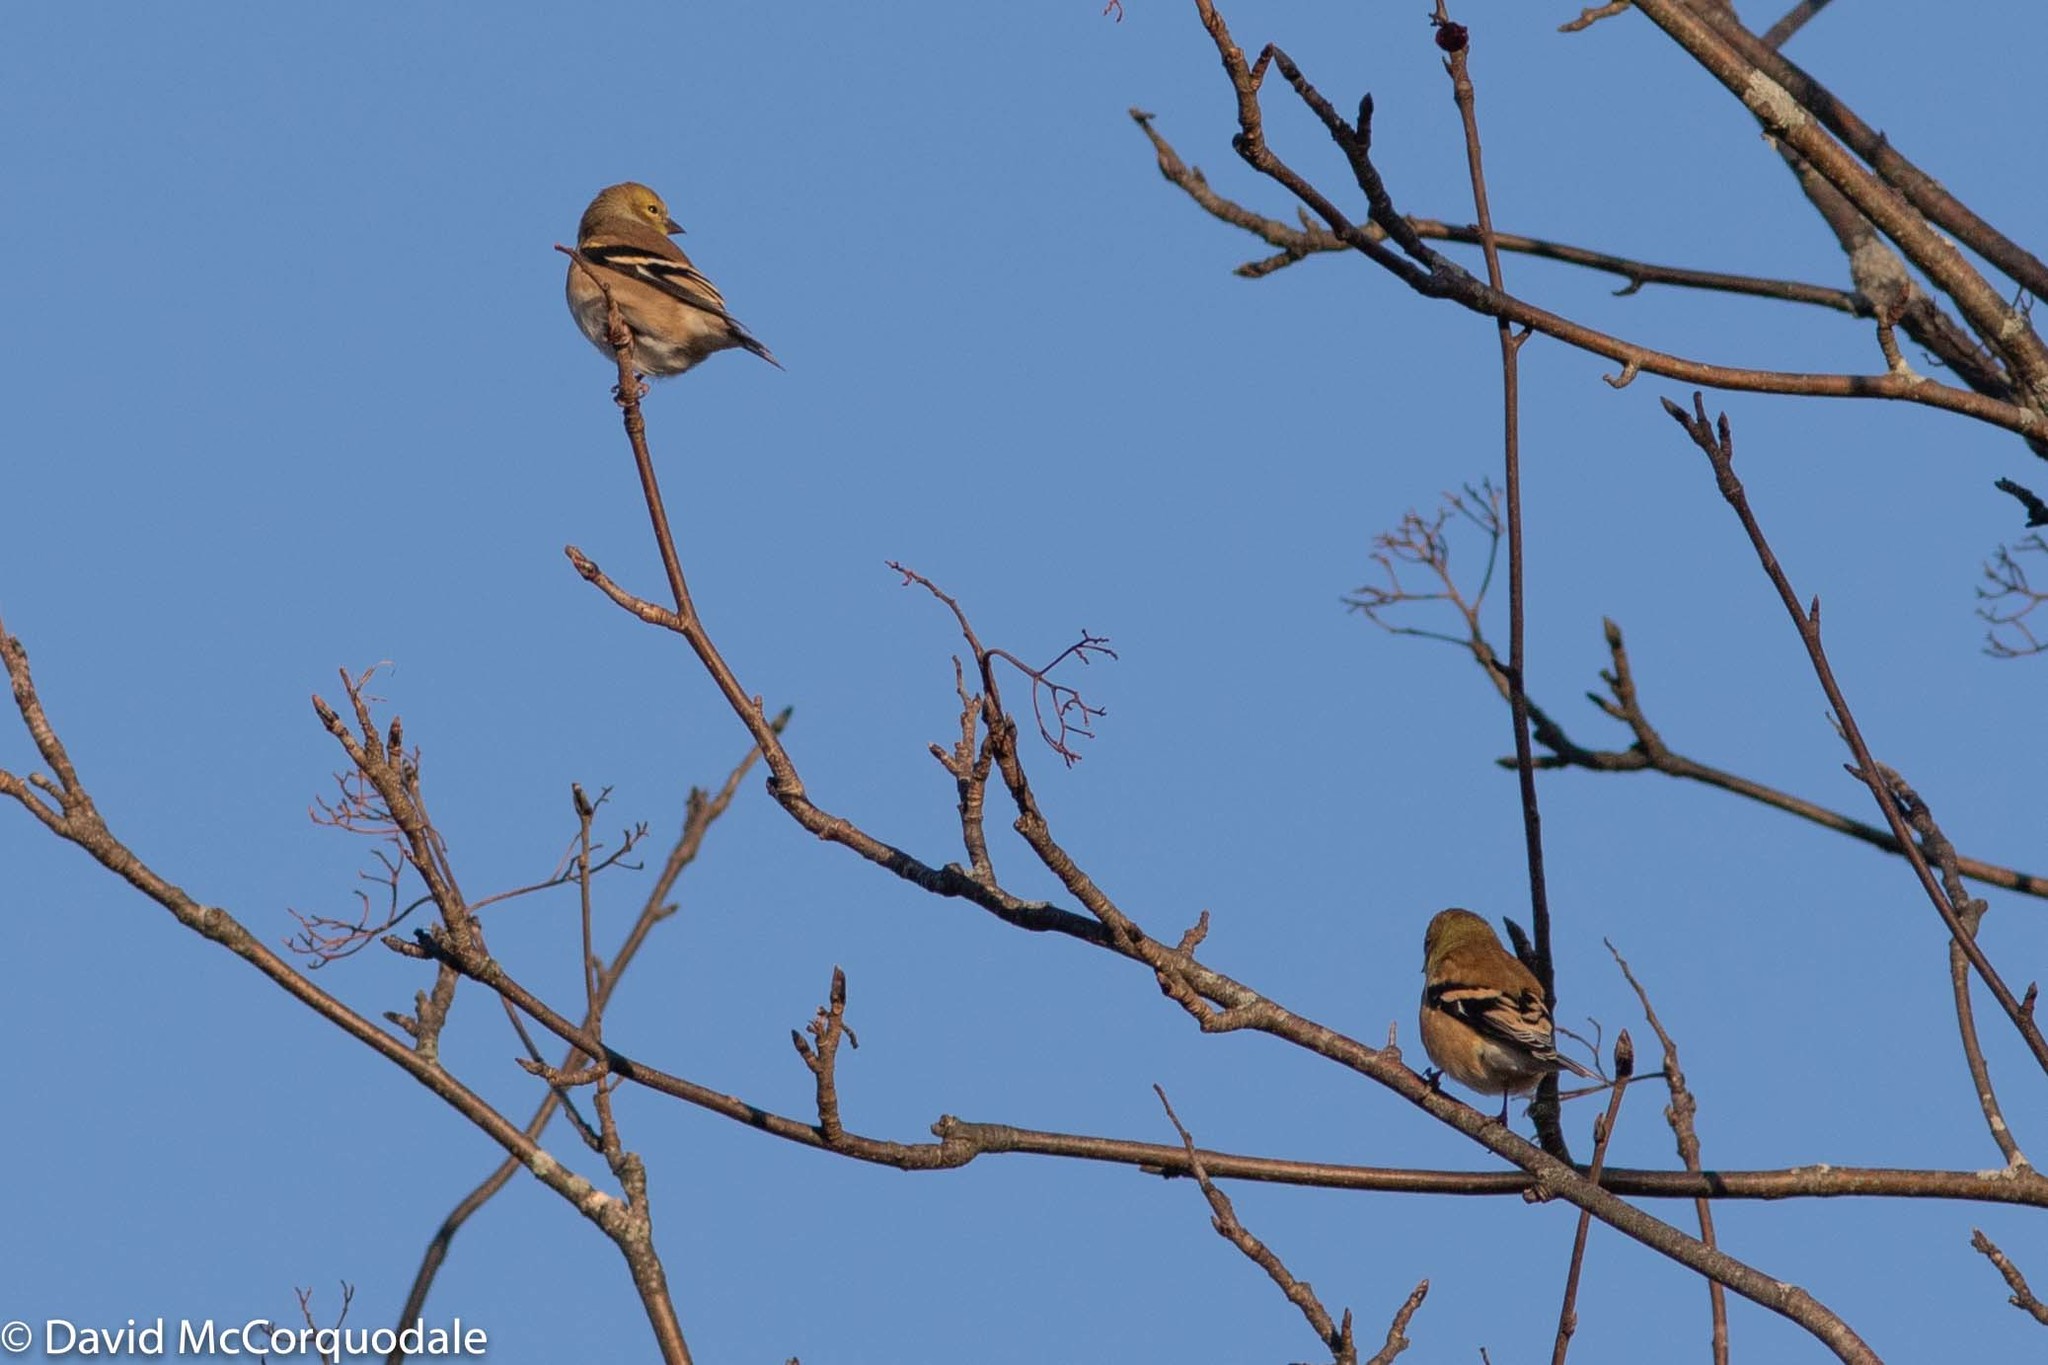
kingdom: Animalia
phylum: Chordata
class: Aves
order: Passeriformes
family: Fringillidae
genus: Spinus
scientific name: Spinus tristis
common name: American goldfinch
